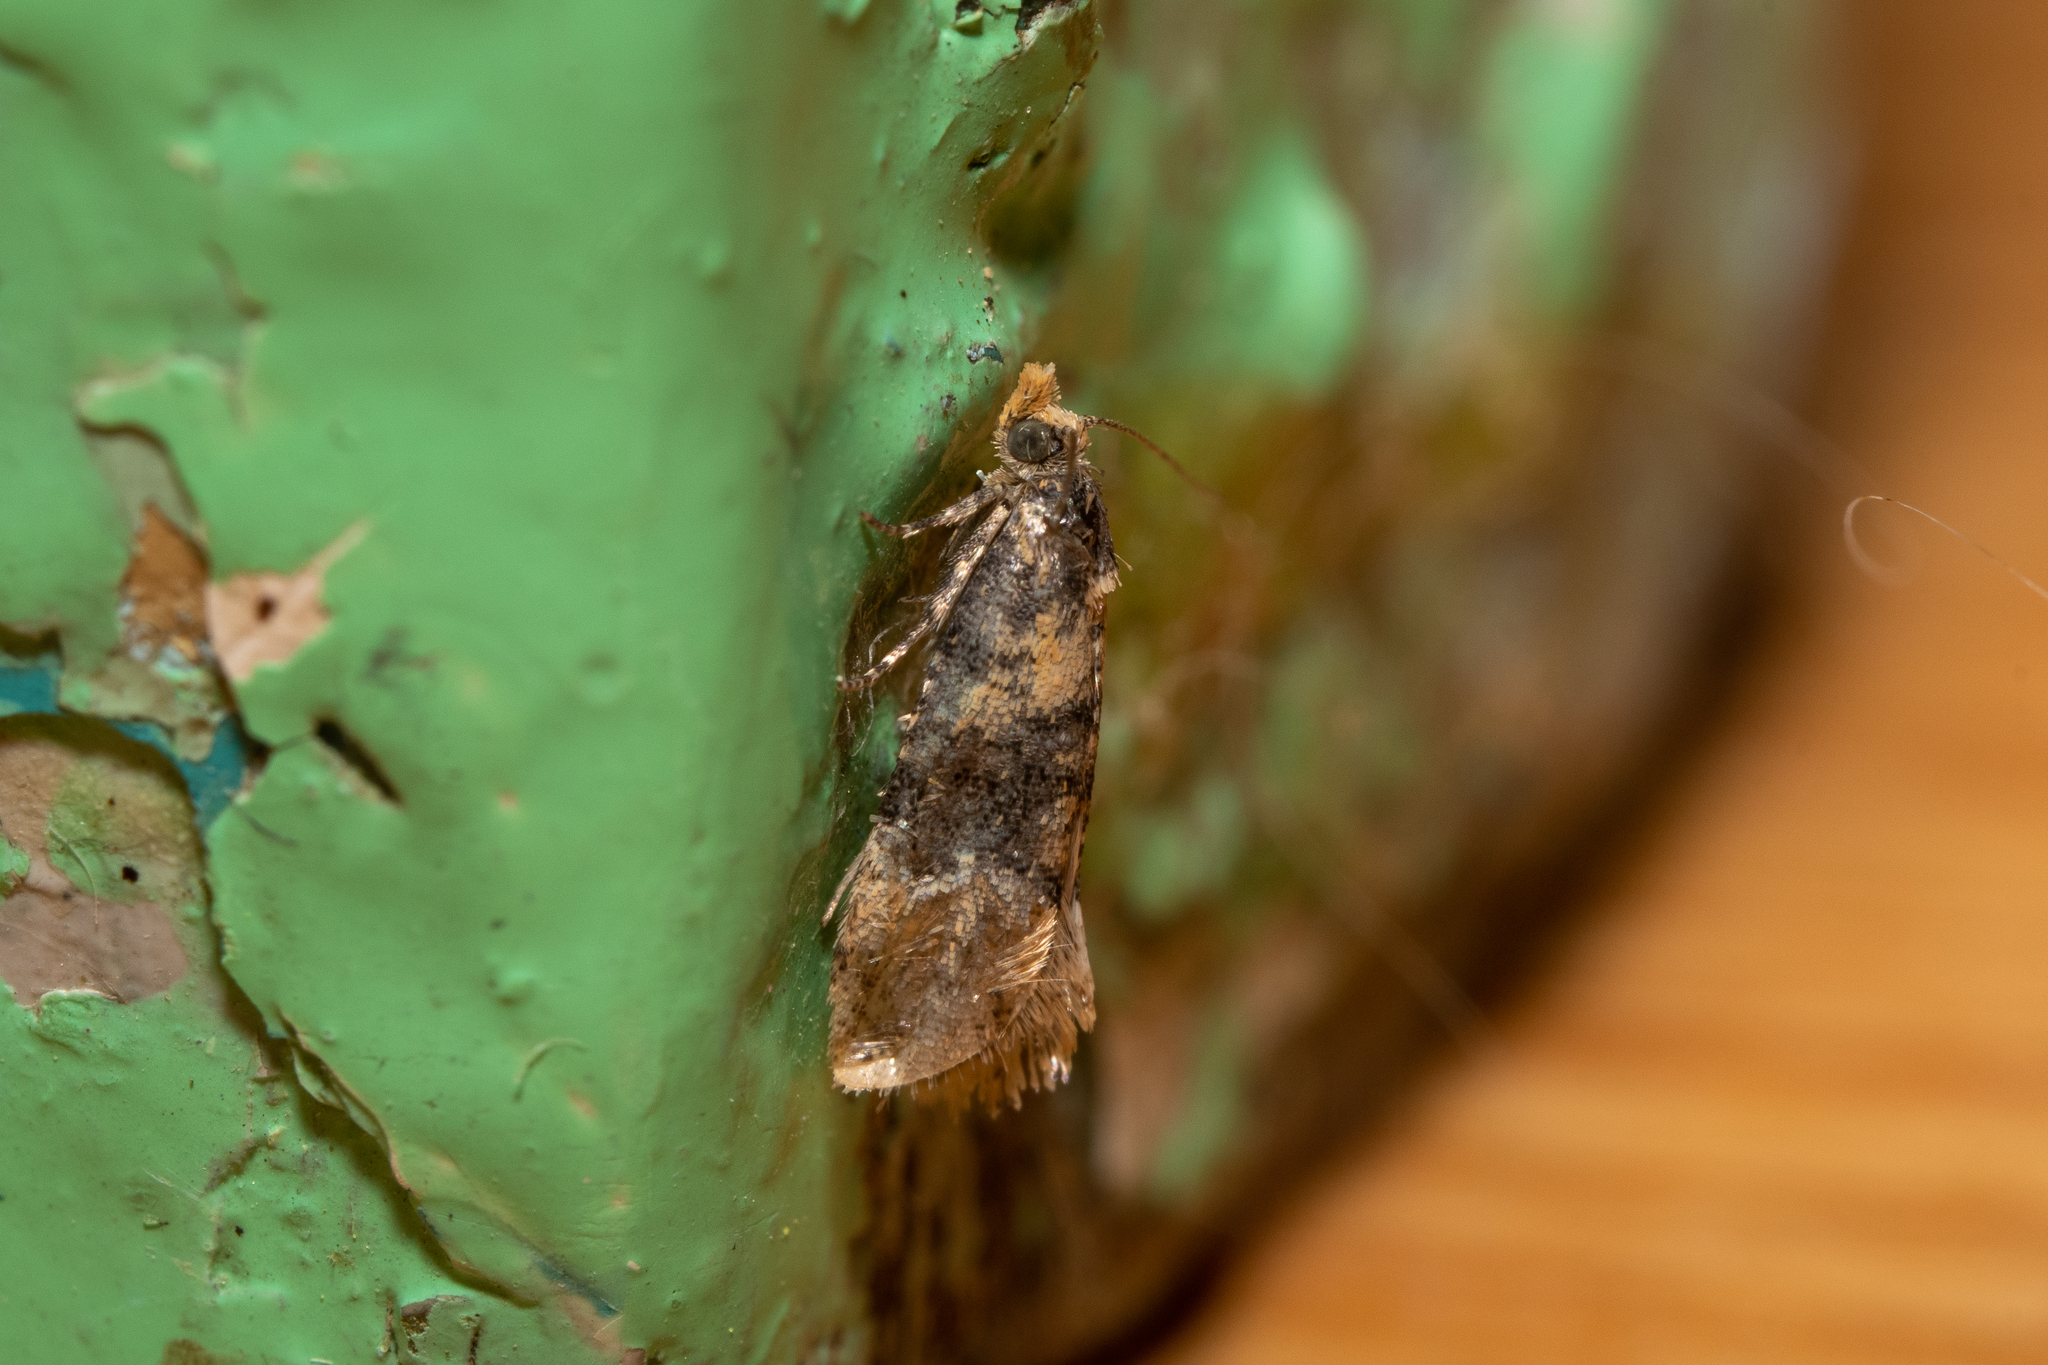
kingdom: Animalia
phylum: Arthropoda
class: Insecta
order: Lepidoptera
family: Tortricidae
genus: Thyraylia
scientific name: Thyraylia nana
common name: Birch conch
